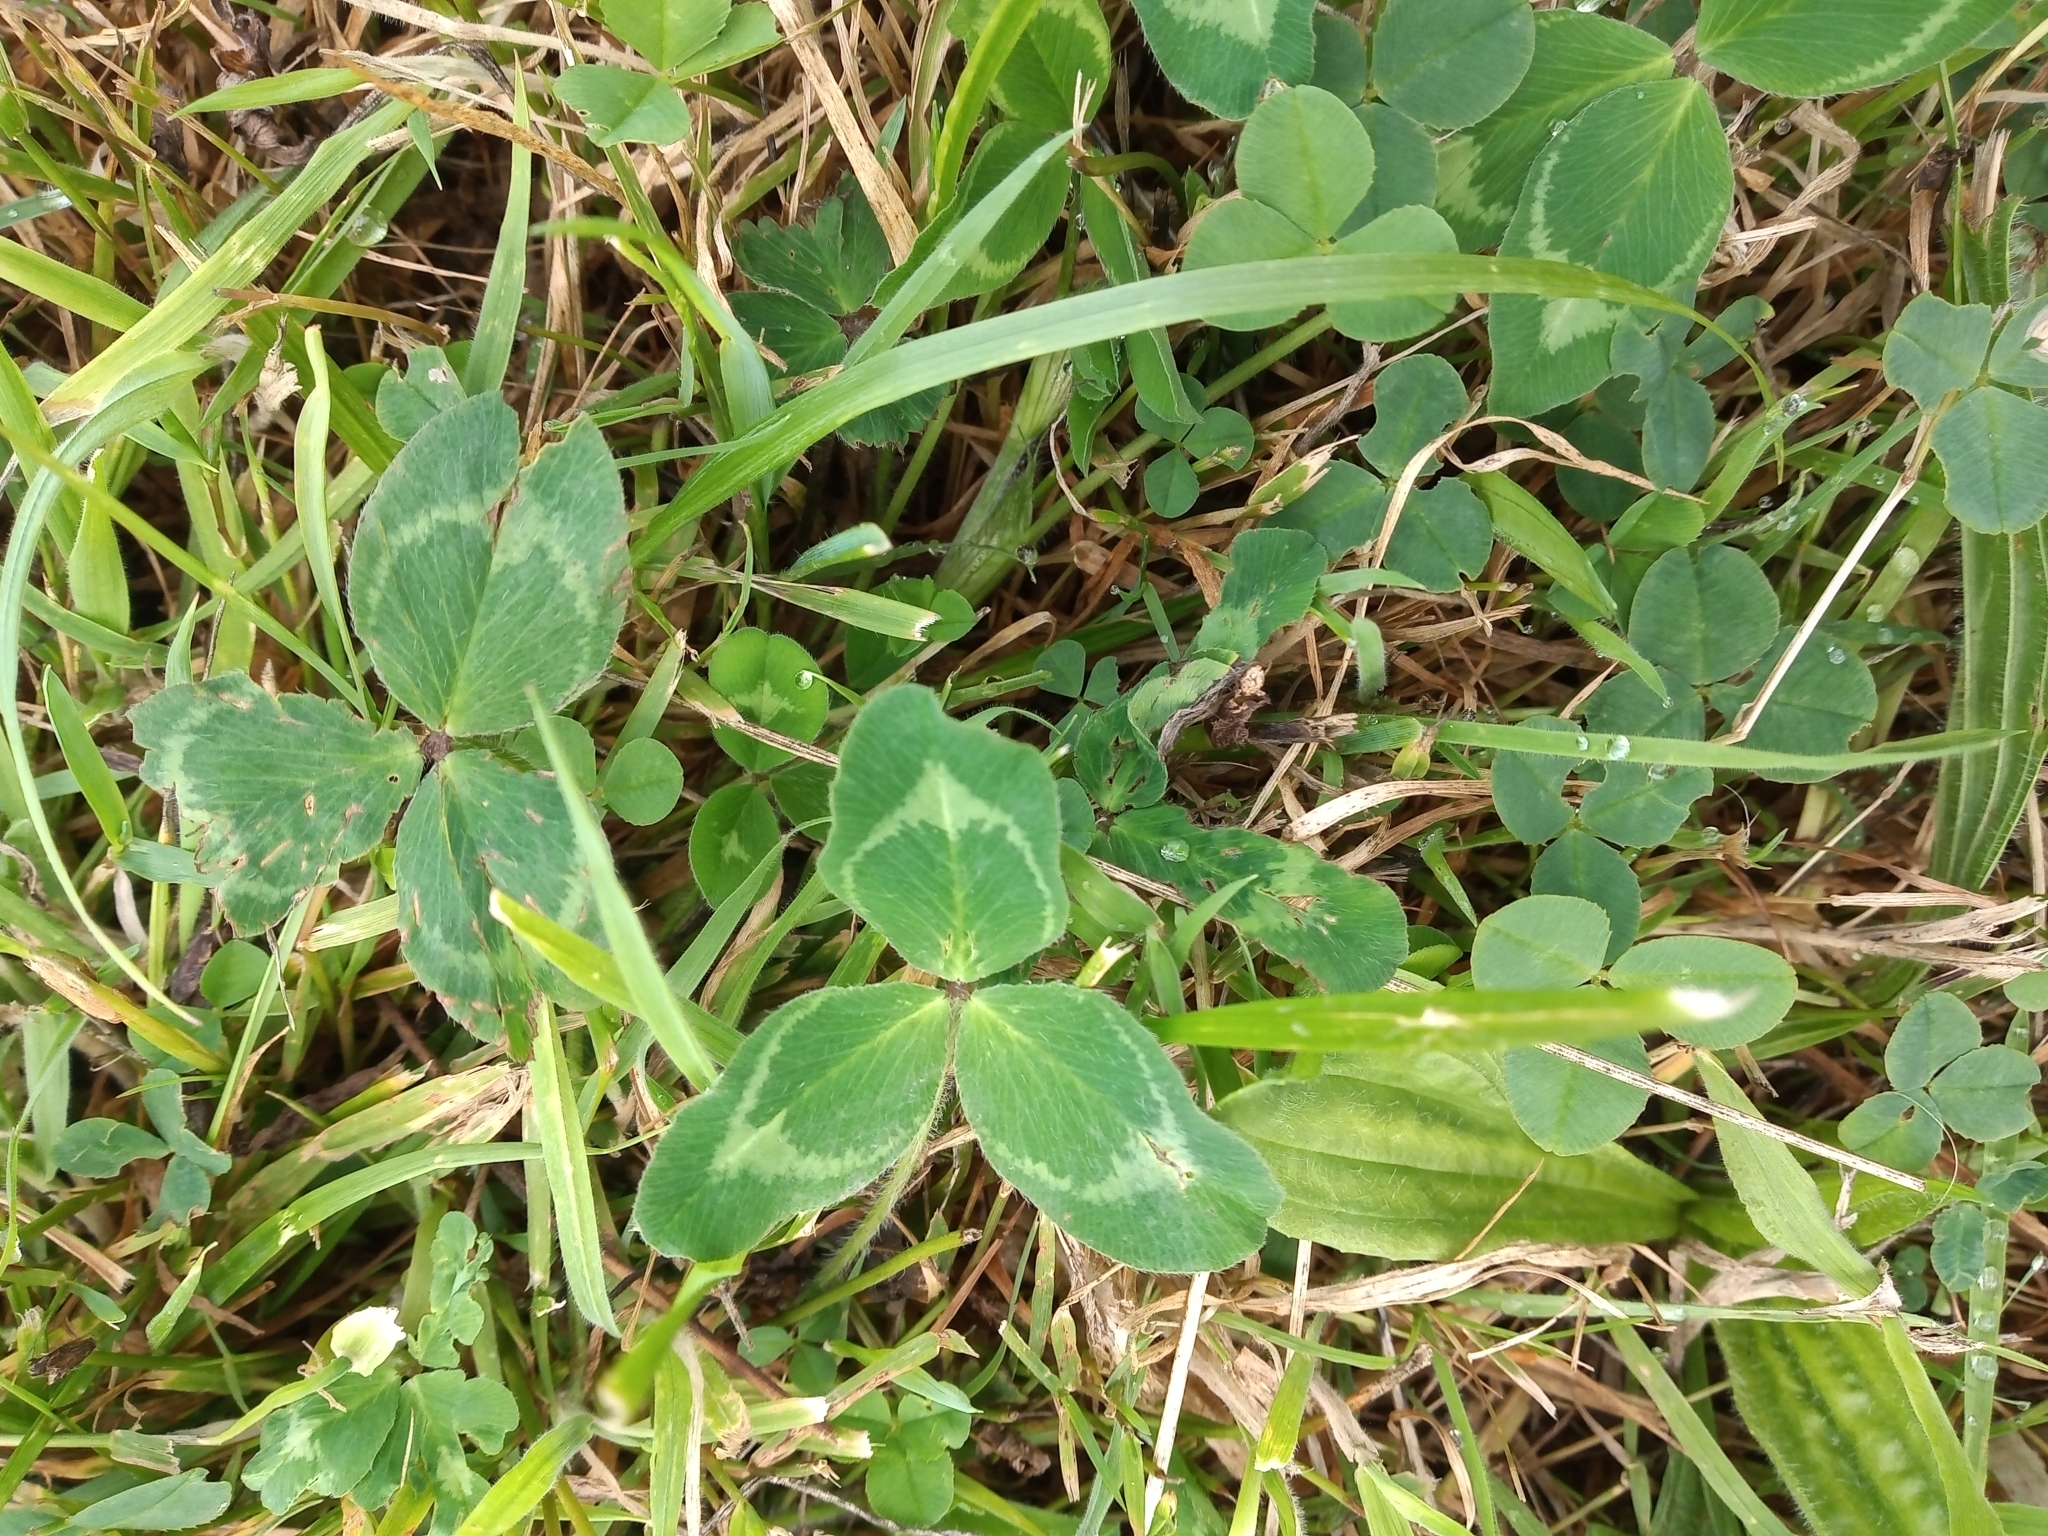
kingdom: Plantae
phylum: Tracheophyta
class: Magnoliopsida
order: Fabales
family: Fabaceae
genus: Trifolium
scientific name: Trifolium pratense
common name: Red clover
